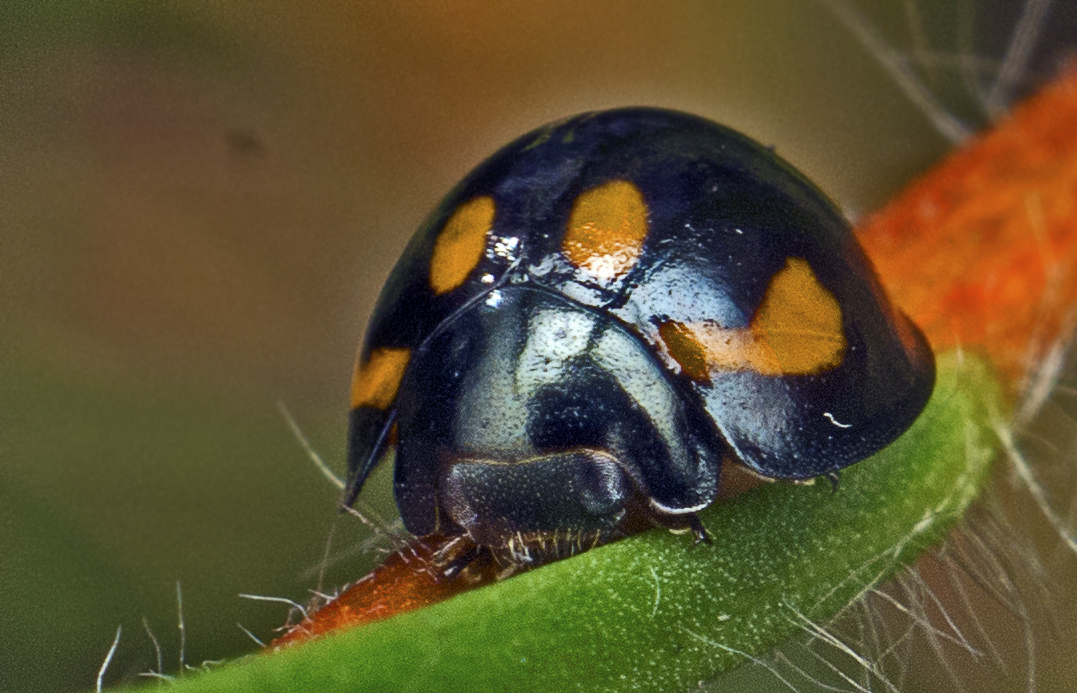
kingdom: Animalia
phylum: Arthropoda
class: Insecta
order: Coleoptera
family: Coccinellidae
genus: Orcus
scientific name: Orcus
